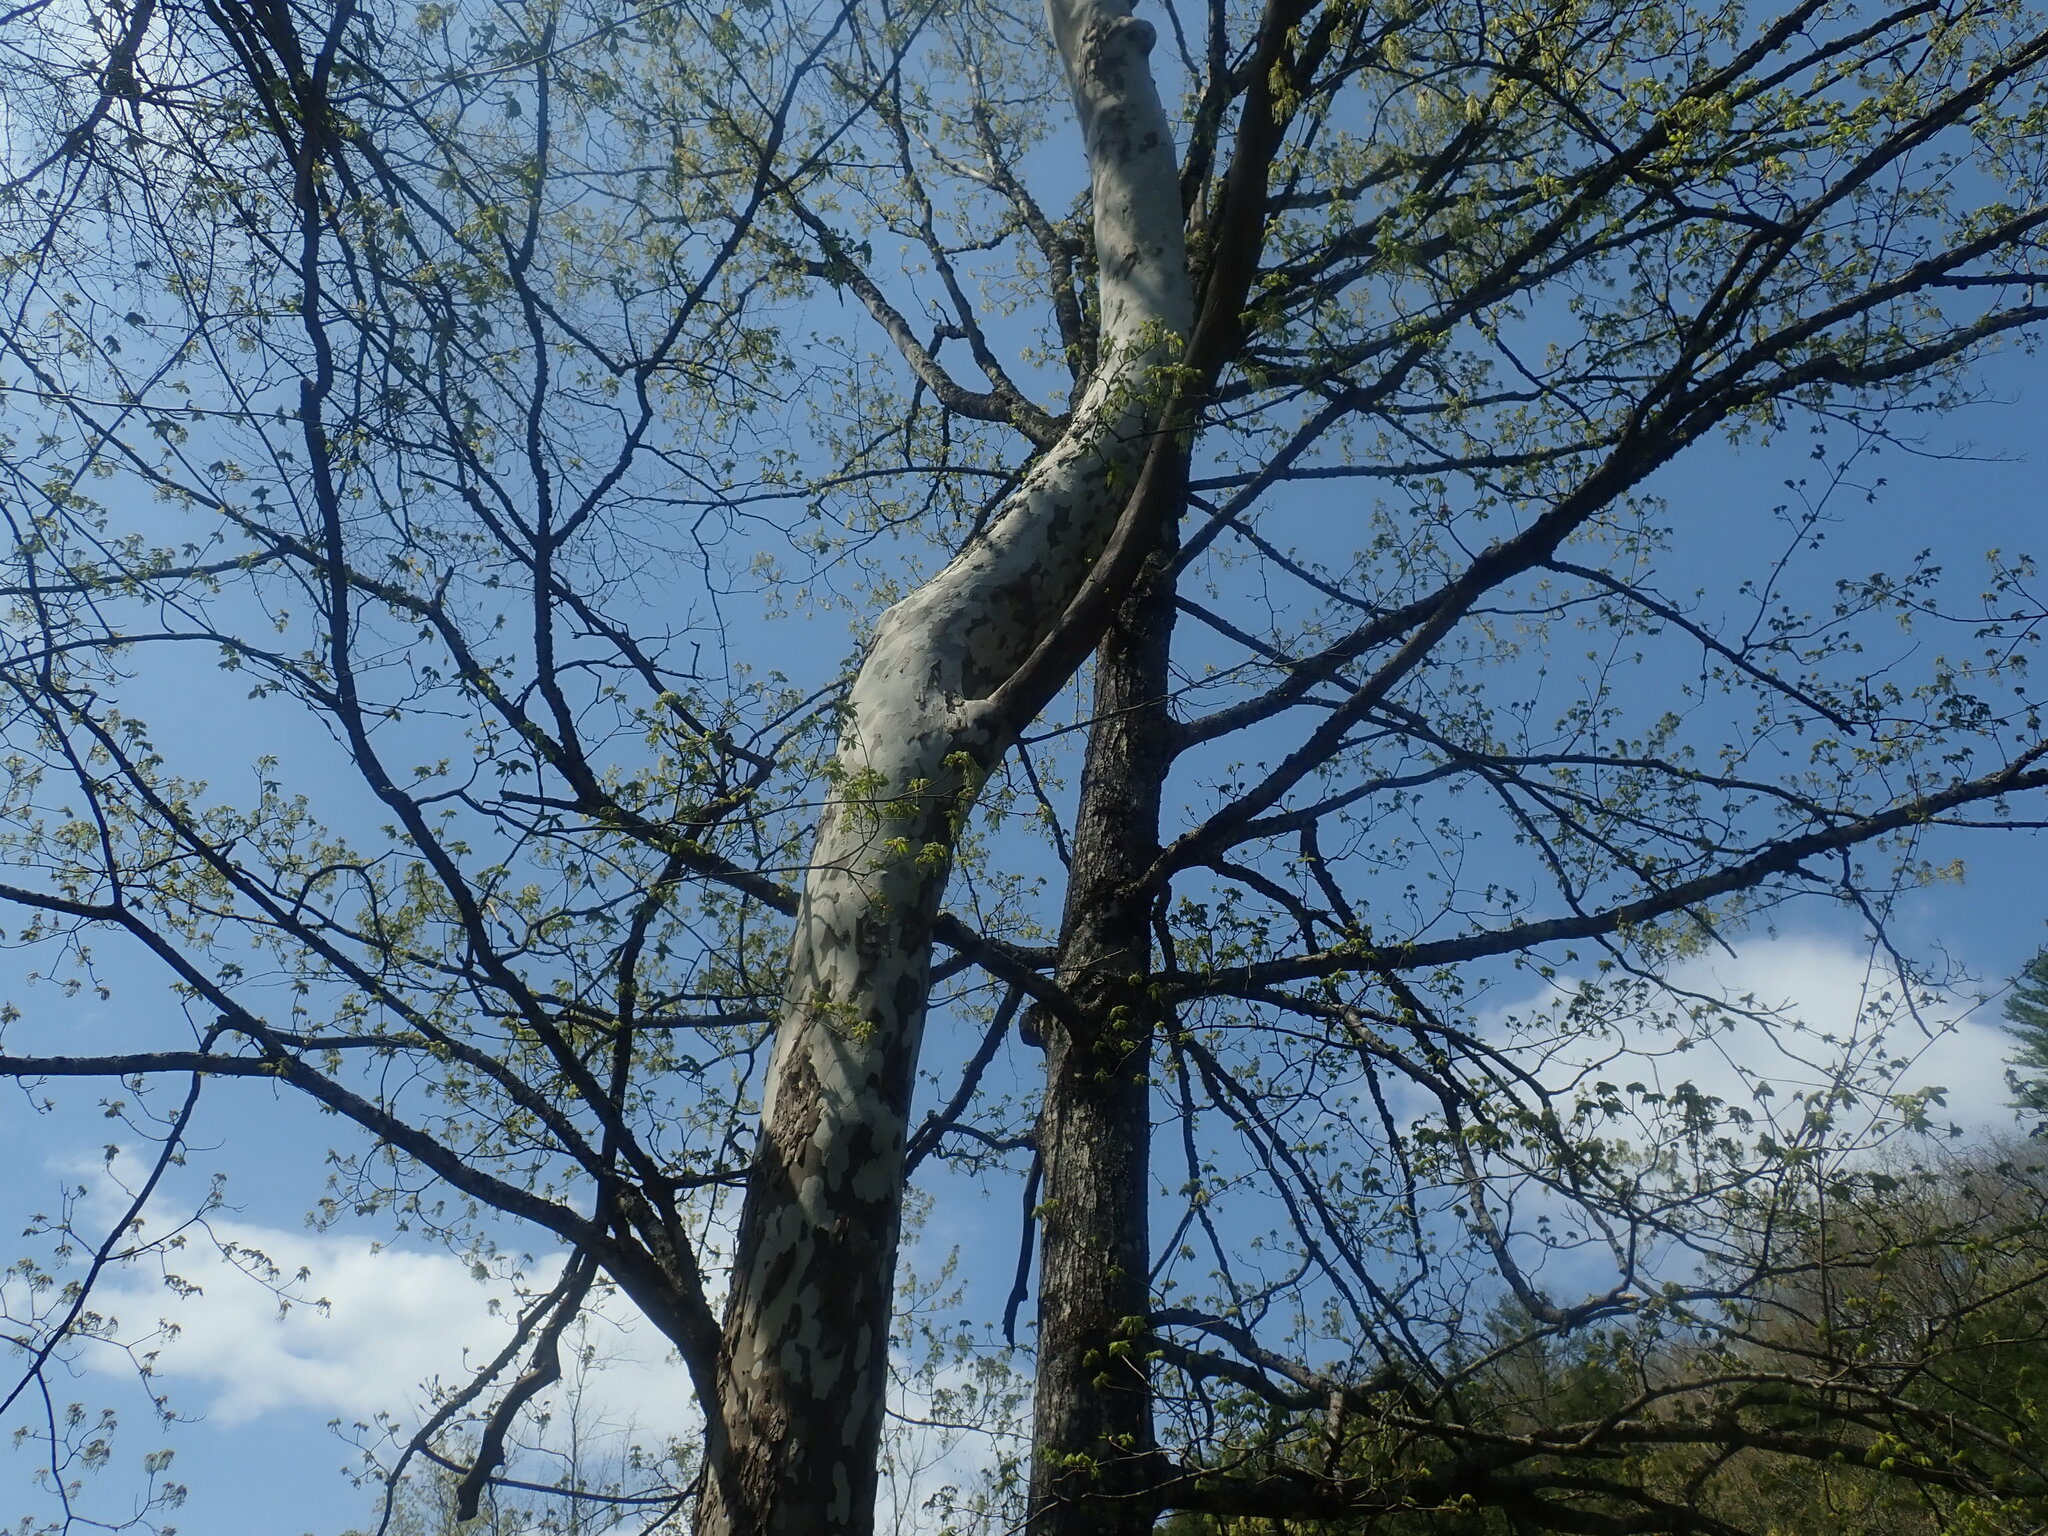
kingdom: Plantae
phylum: Tracheophyta
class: Magnoliopsida
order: Proteales
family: Platanaceae
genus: Platanus
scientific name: Platanus occidentalis
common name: American sycamore
